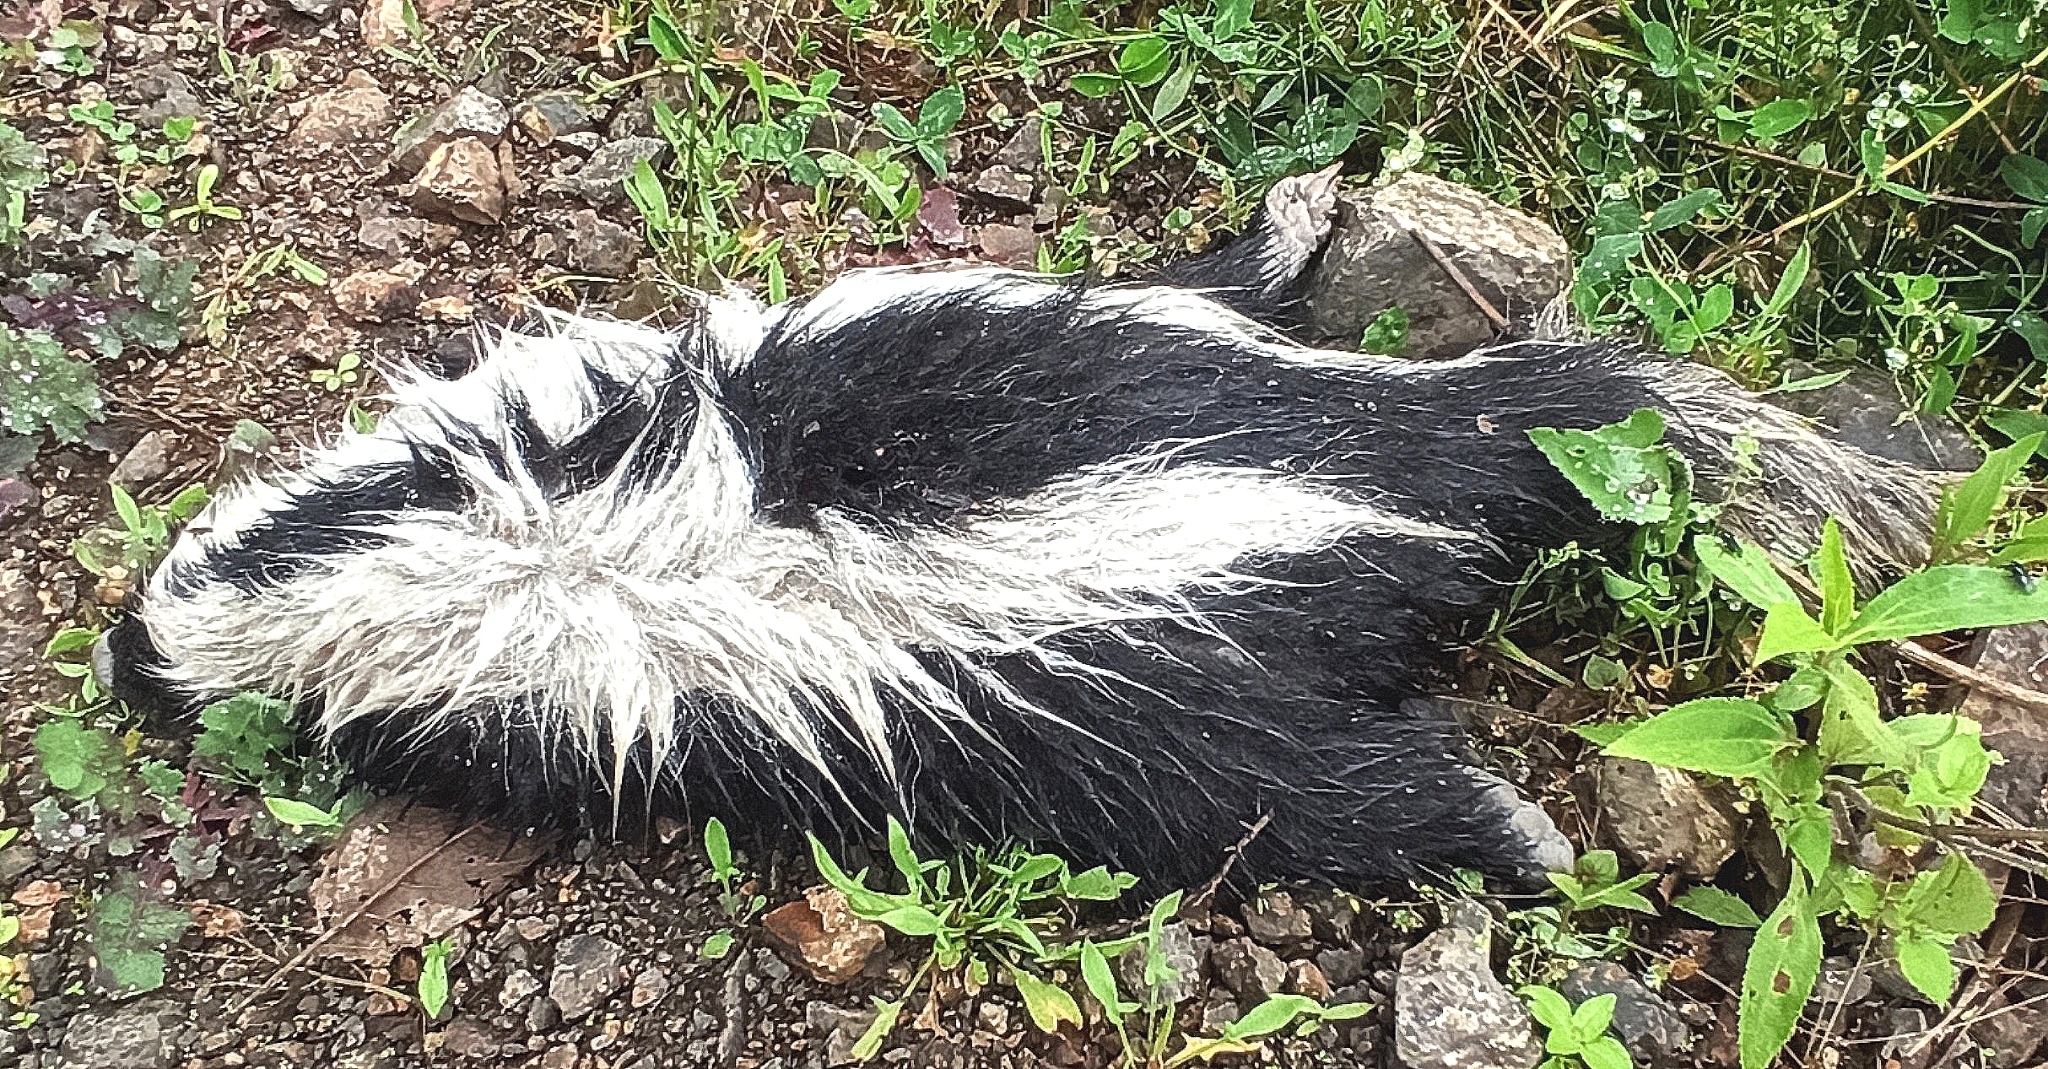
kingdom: Animalia
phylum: Chordata
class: Mammalia
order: Carnivora
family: Mephitidae
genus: Conepatus
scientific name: Conepatus semistriatus
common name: Striped hog-nosed skunk
